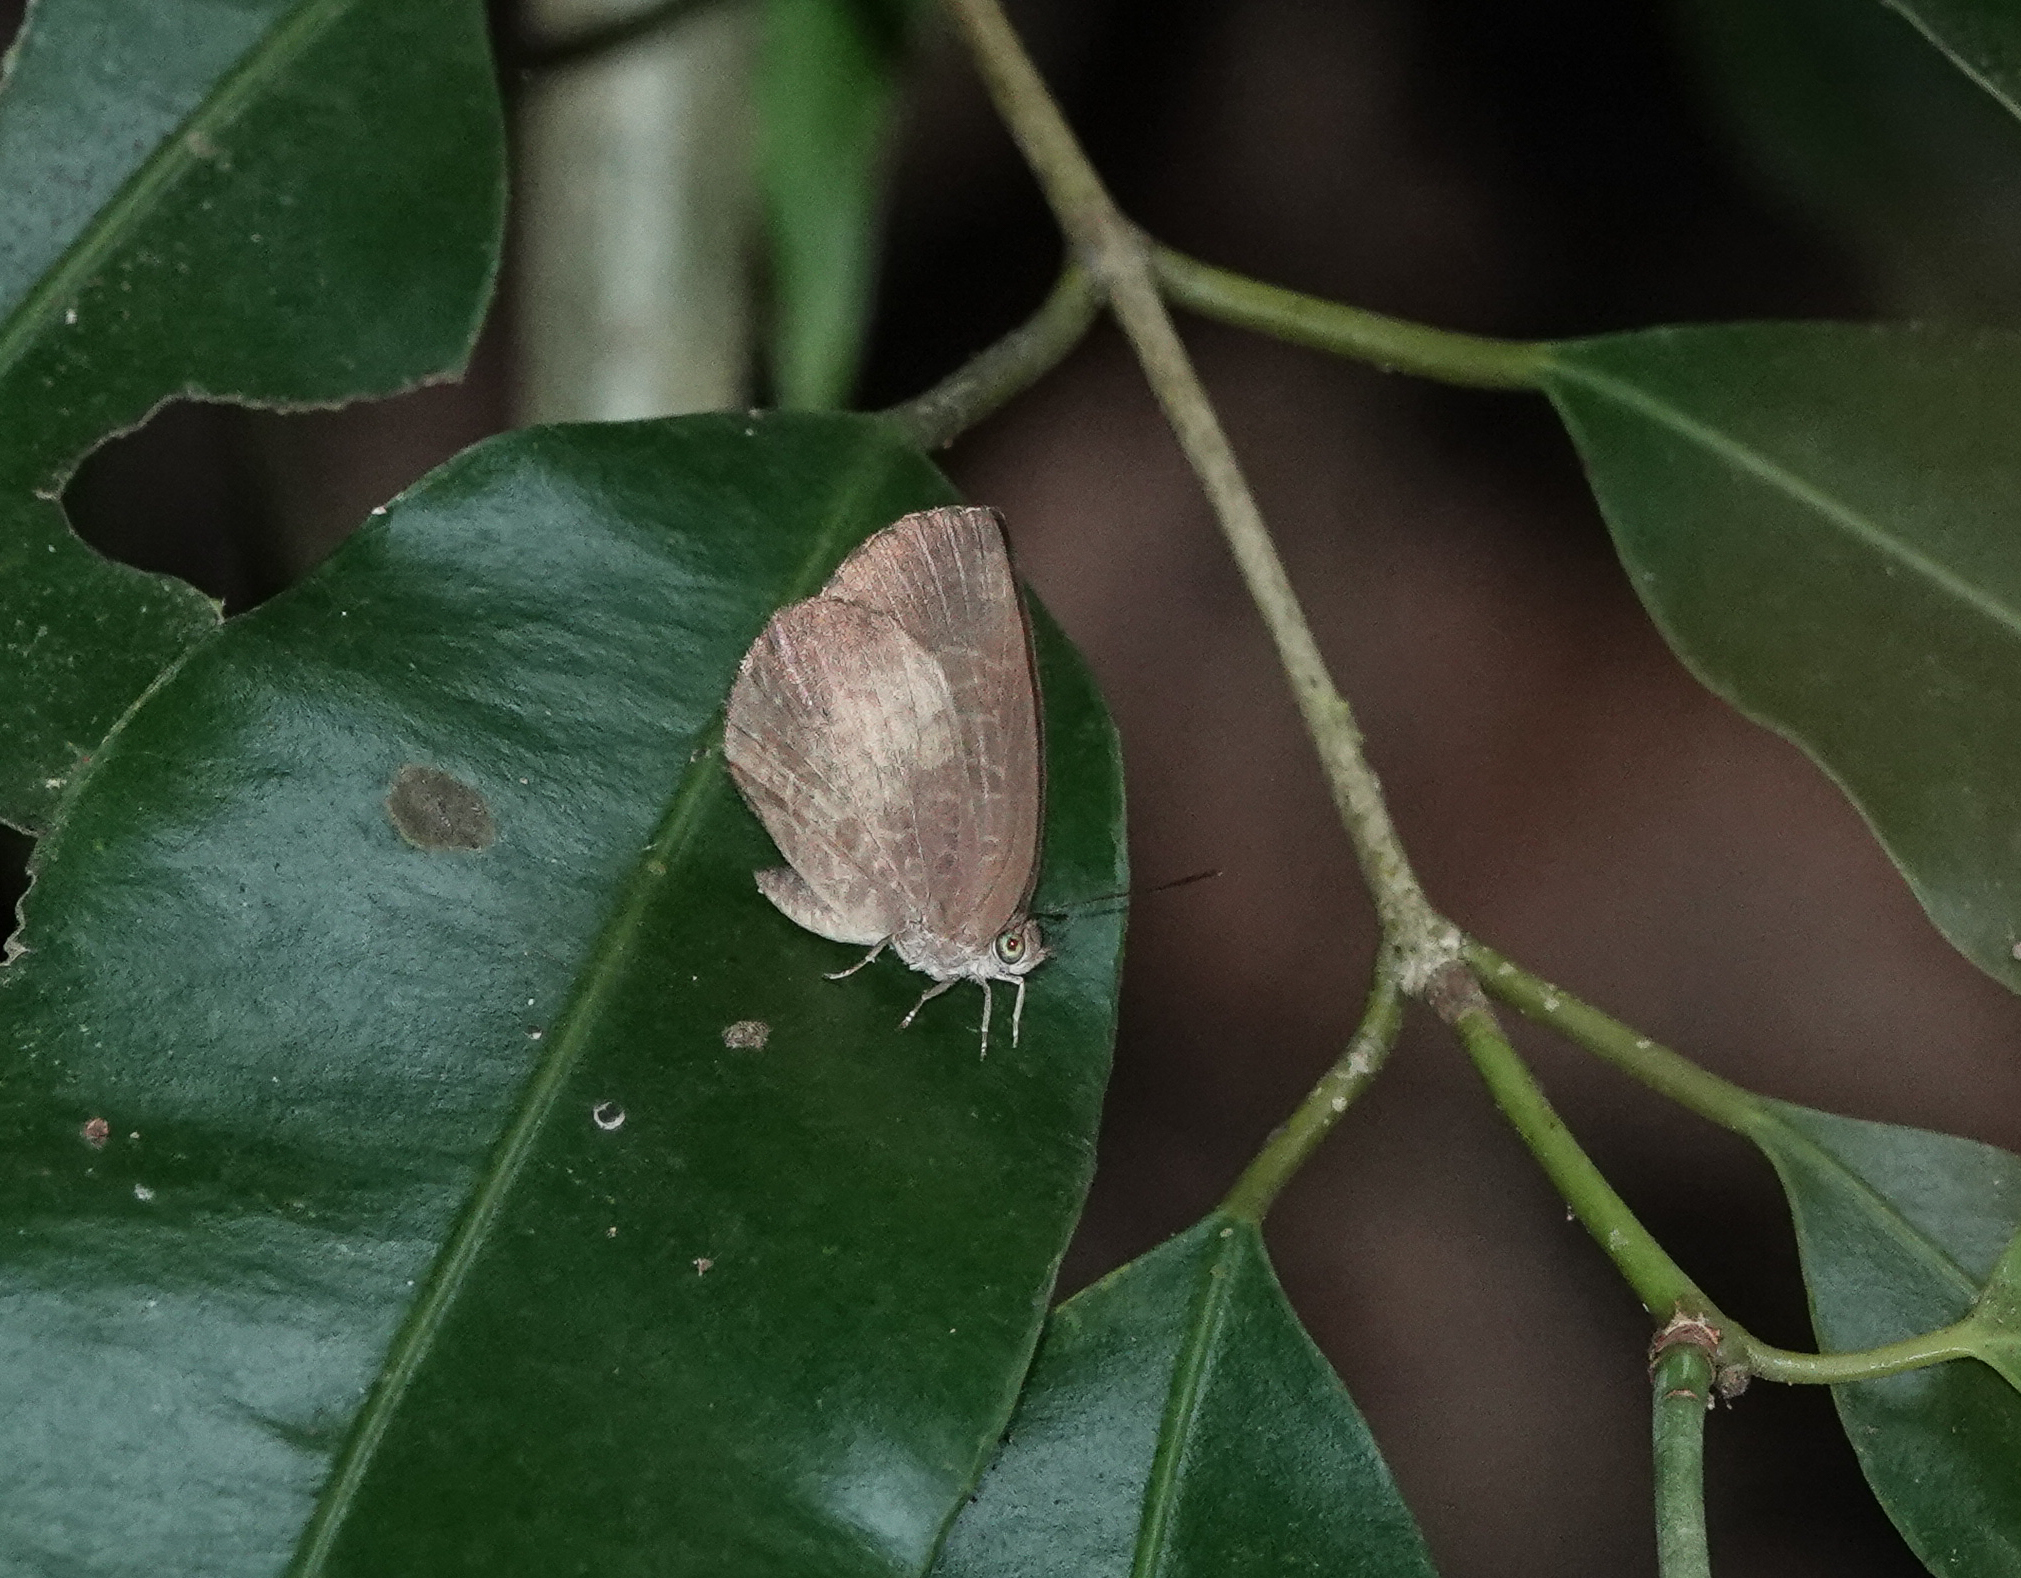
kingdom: Animalia
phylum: Arthropoda
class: Insecta
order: Lepidoptera
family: Lycaenidae
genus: Arhopala
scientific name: Arhopala perimuta
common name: Yellowdisc oakblue
